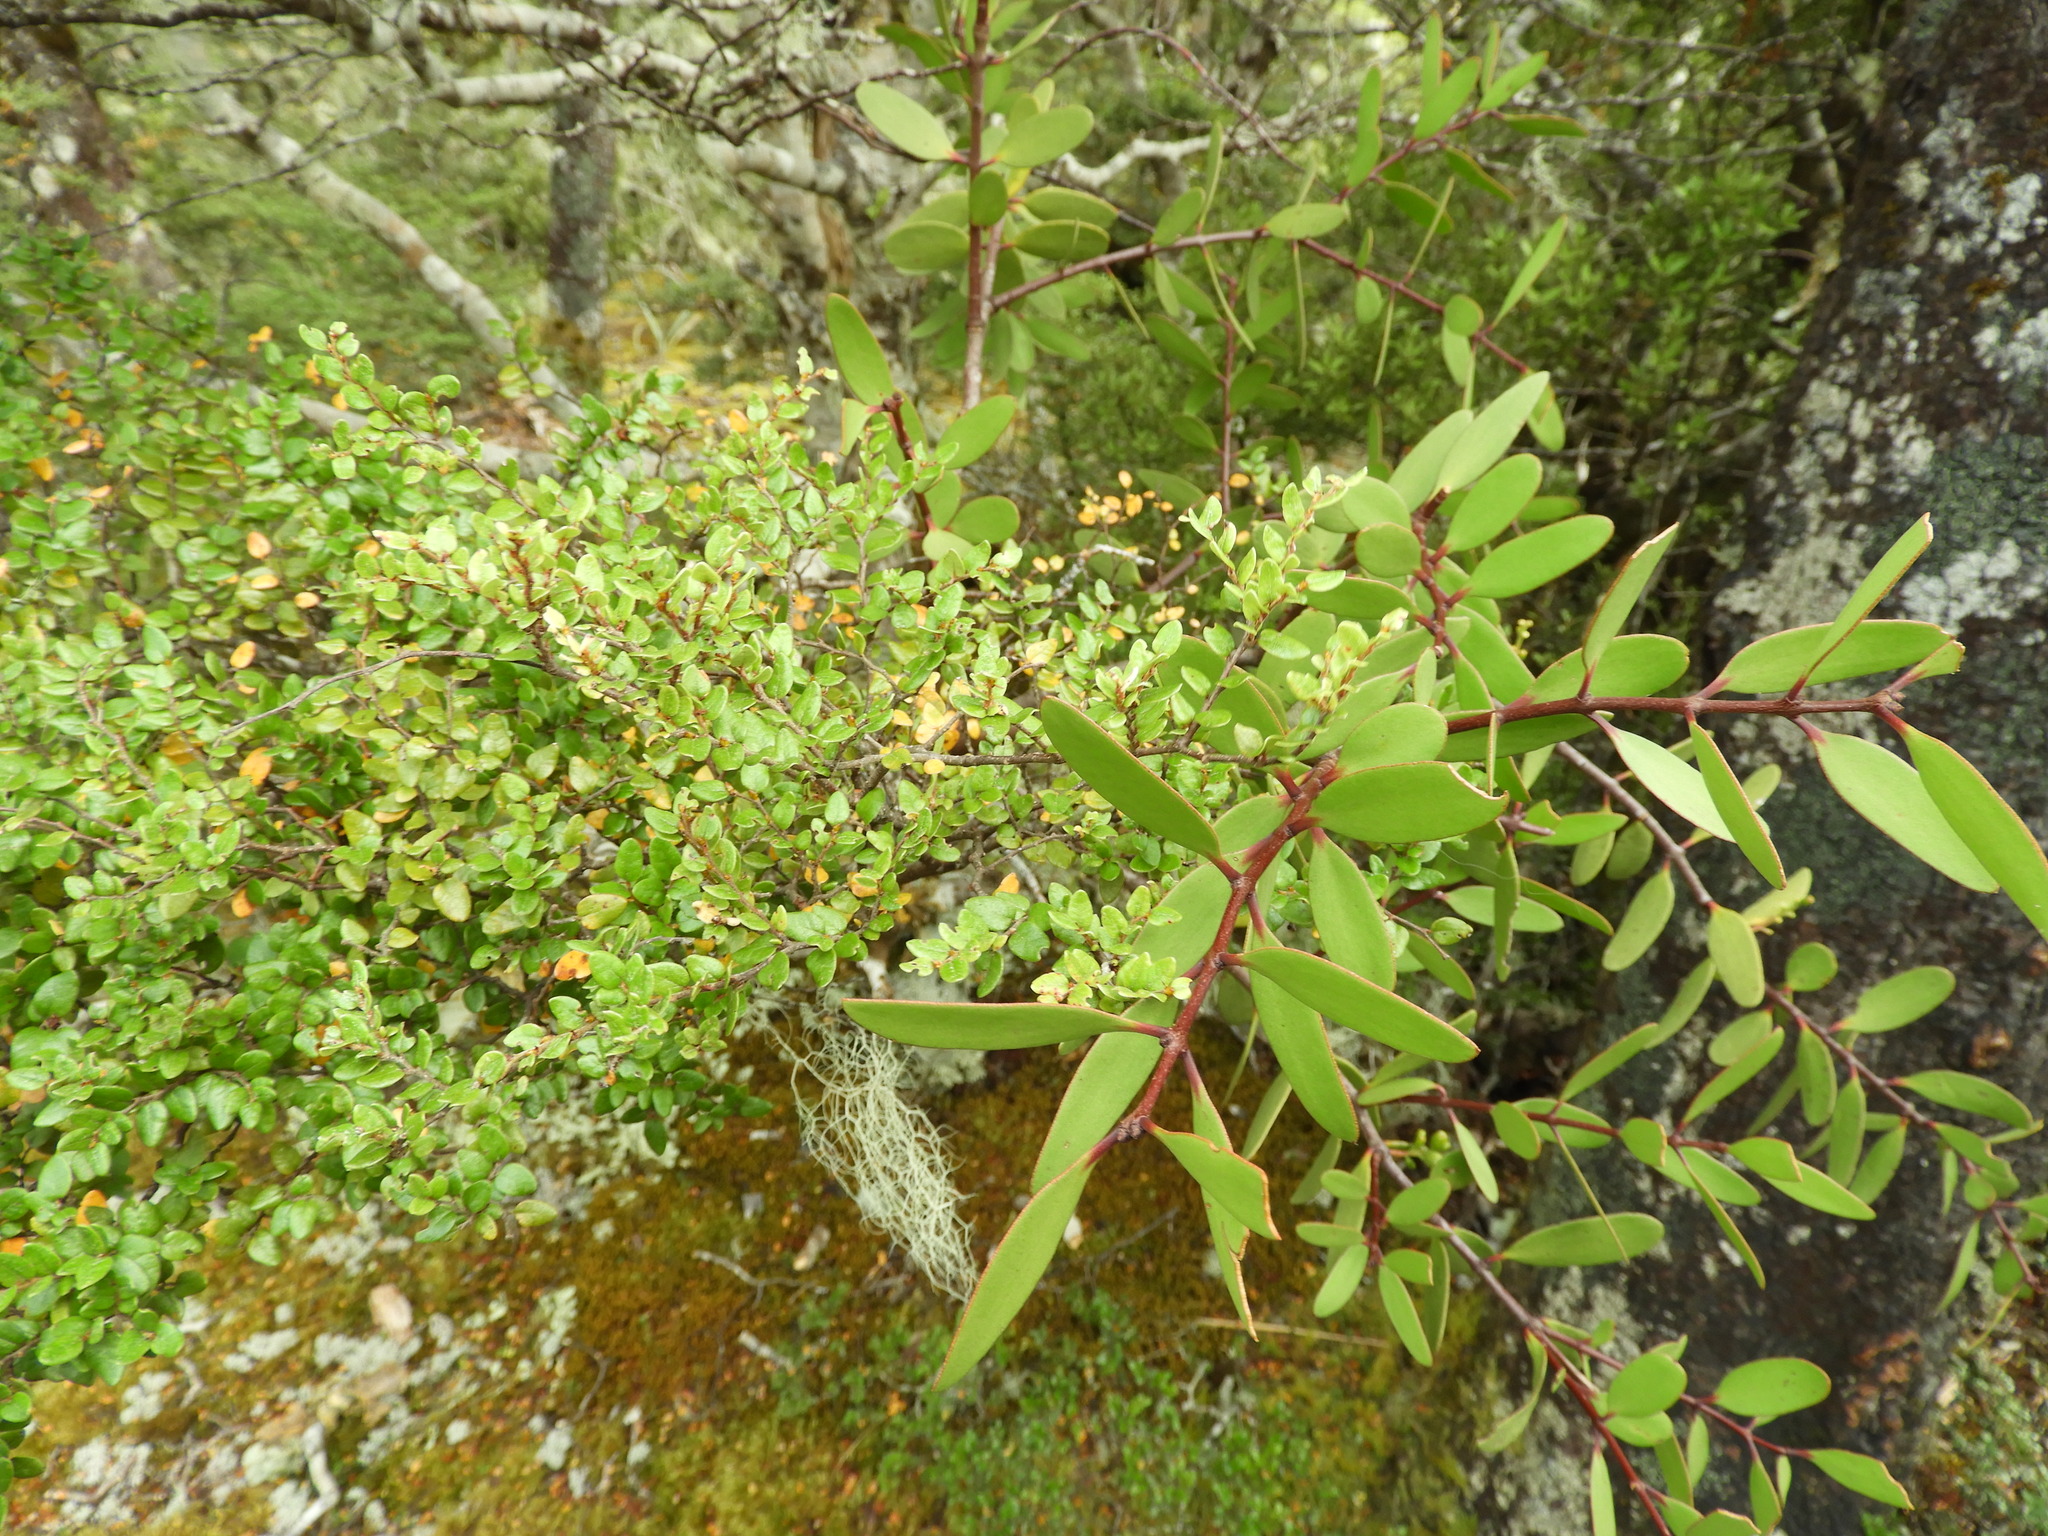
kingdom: Plantae
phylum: Tracheophyta
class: Magnoliopsida
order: Fagales
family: Nothofagaceae
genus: Nothofagus
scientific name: Nothofagus cliffortioides
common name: Mountain beech
